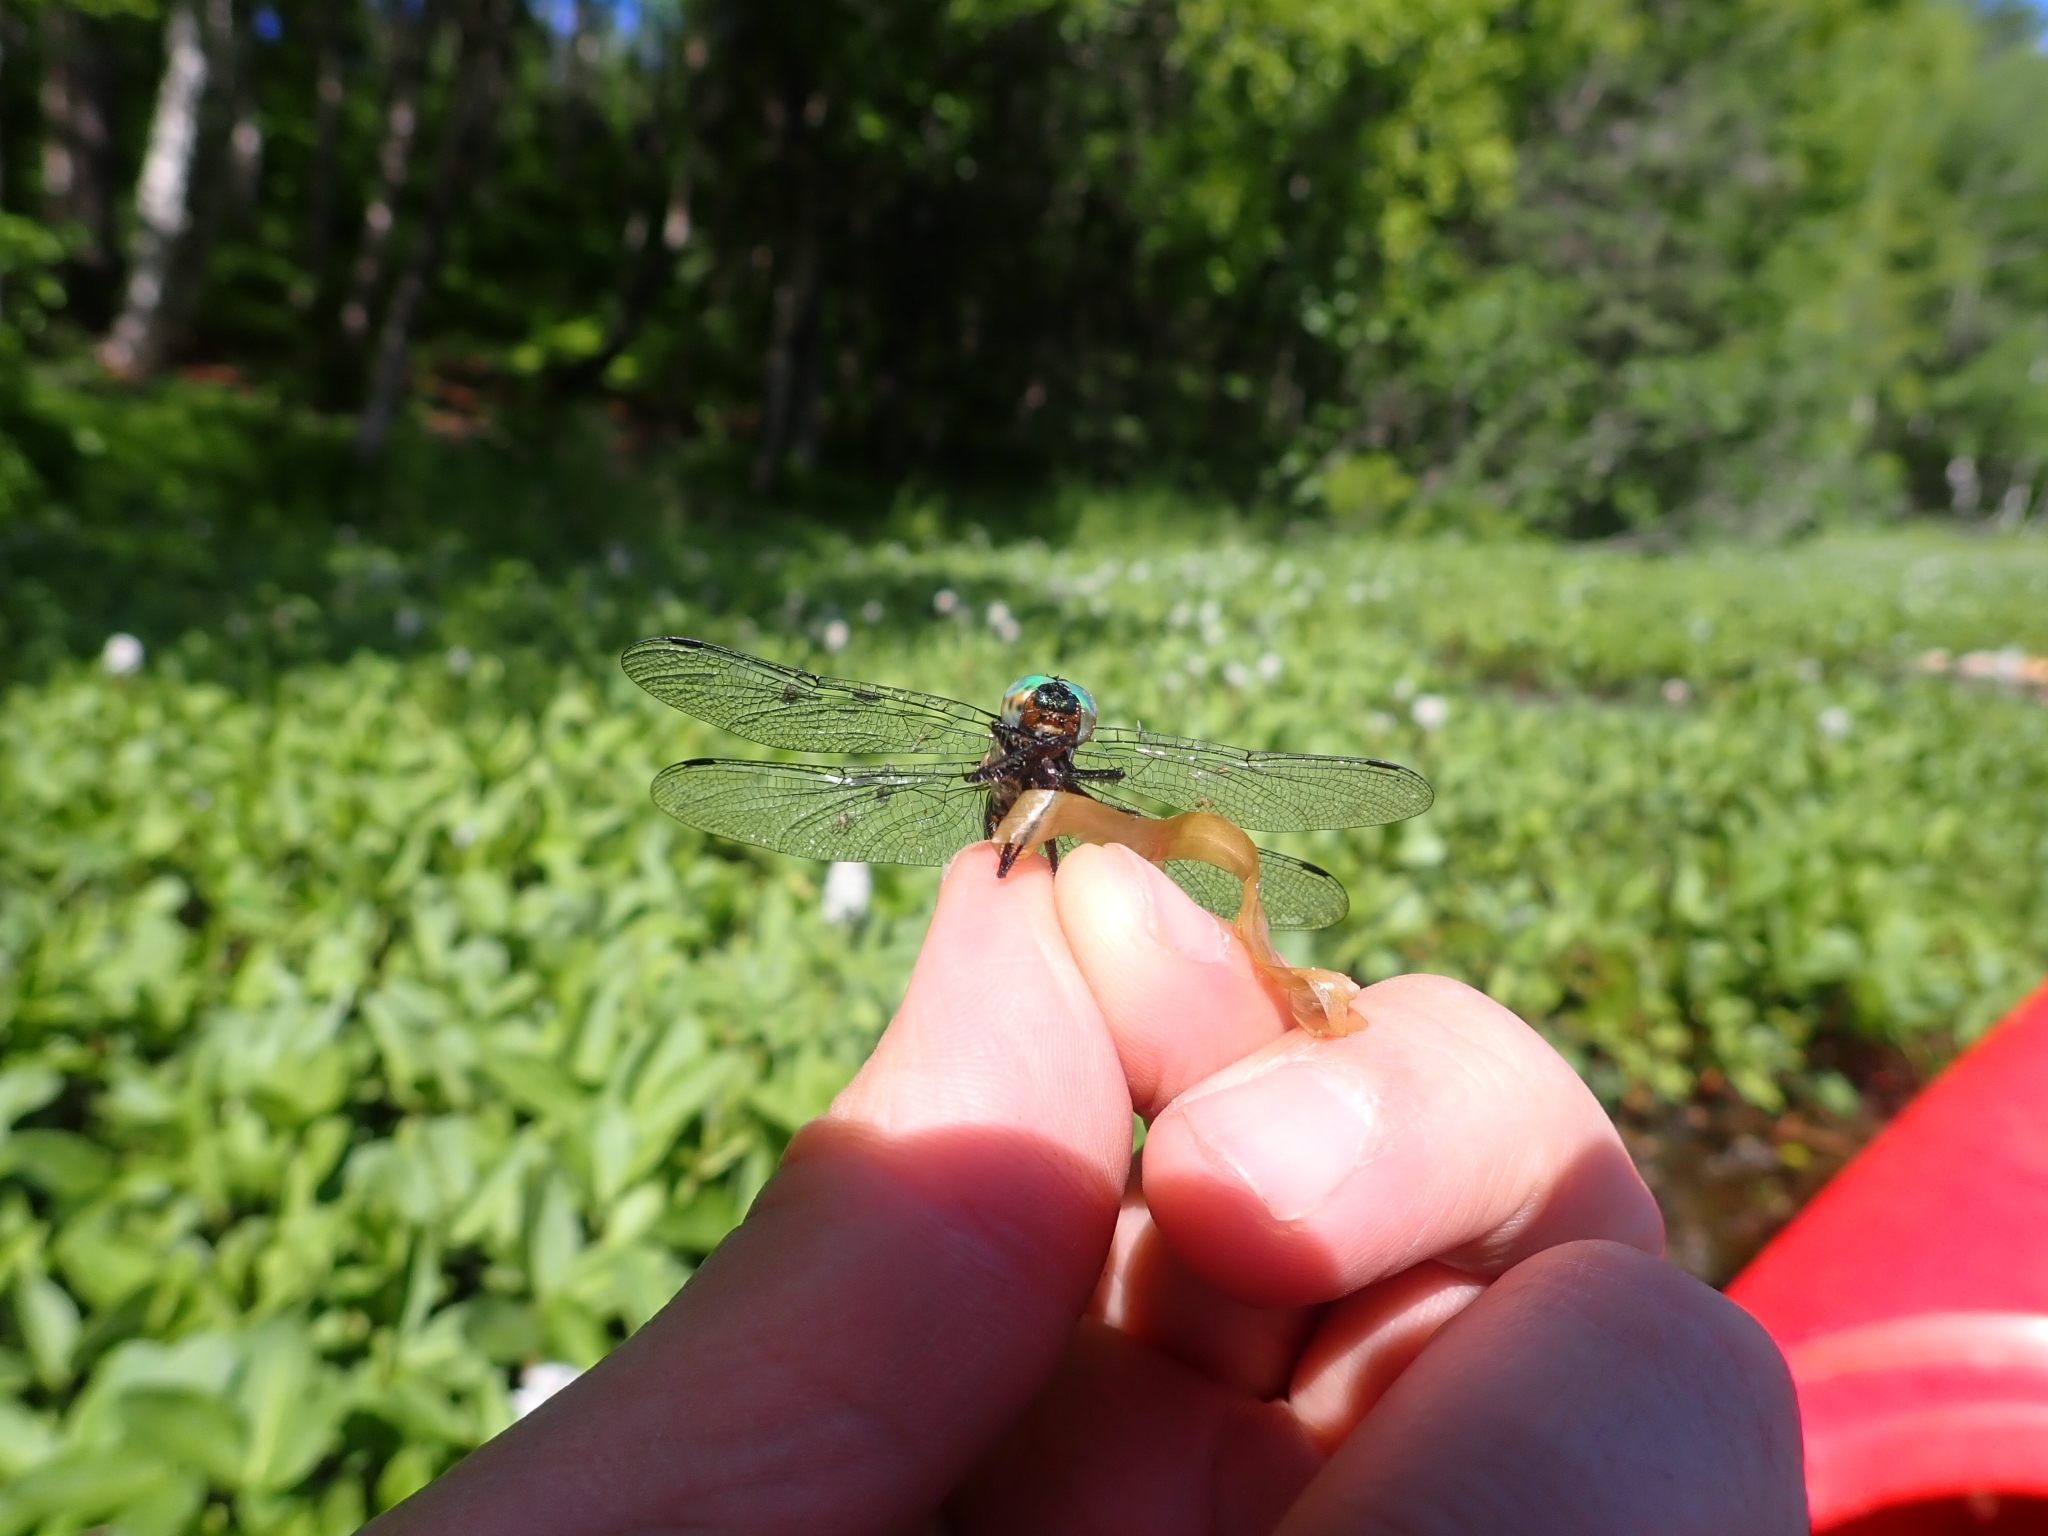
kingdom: Animalia
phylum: Arthropoda
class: Insecta
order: Odonata
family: Corduliidae
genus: Cordulia
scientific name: Cordulia shurtleffii
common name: American emerald
